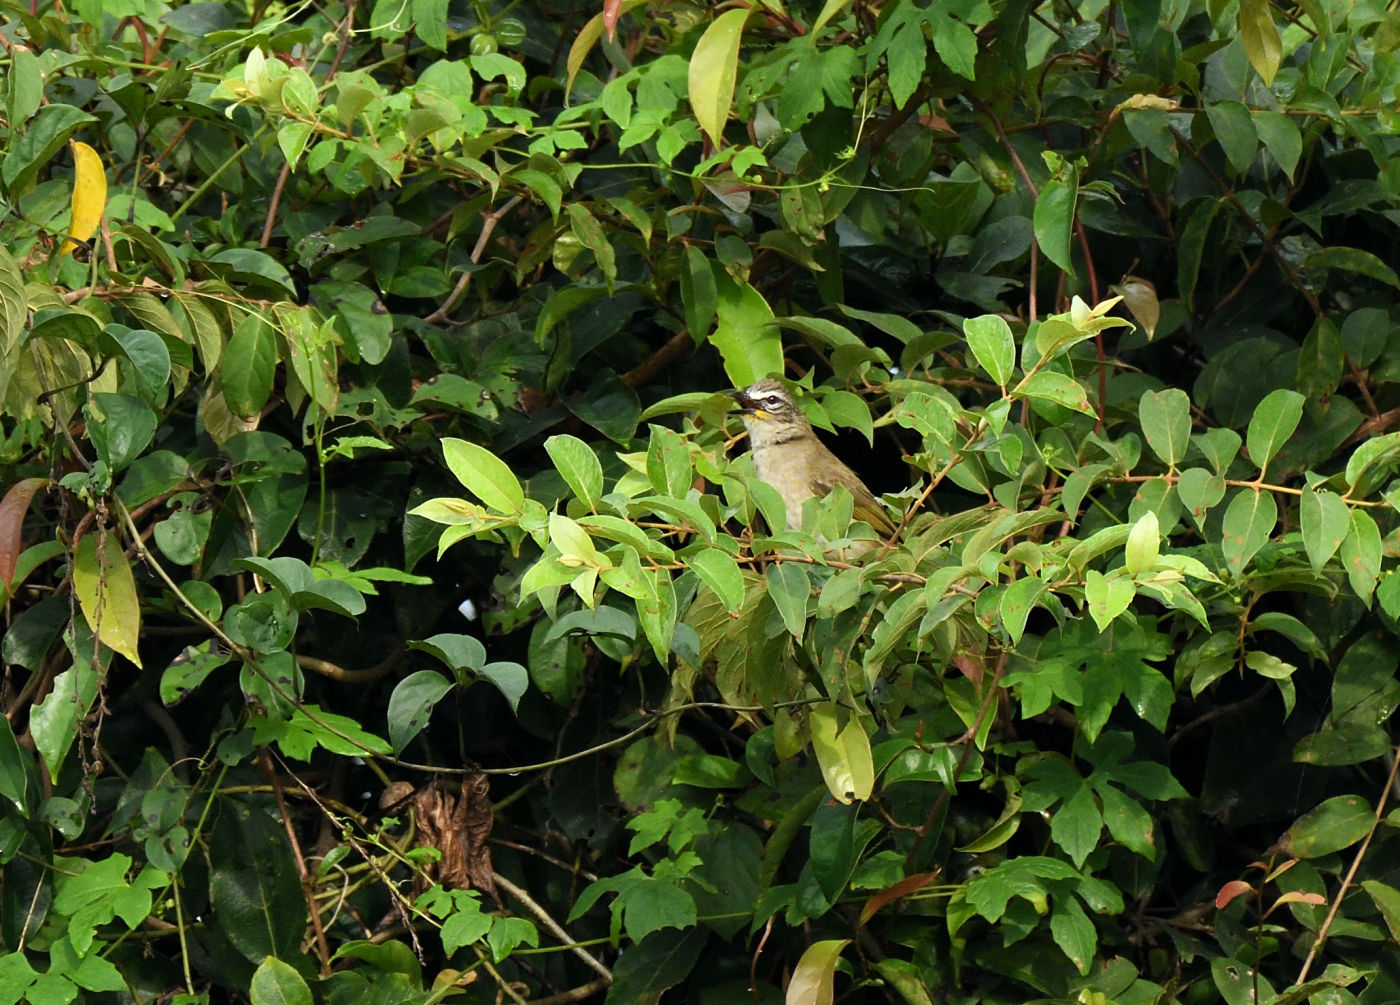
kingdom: Animalia
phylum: Chordata
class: Aves
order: Passeriformes
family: Pycnonotidae
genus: Pycnonotus
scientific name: Pycnonotus luteolus
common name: White-browed bulbul
